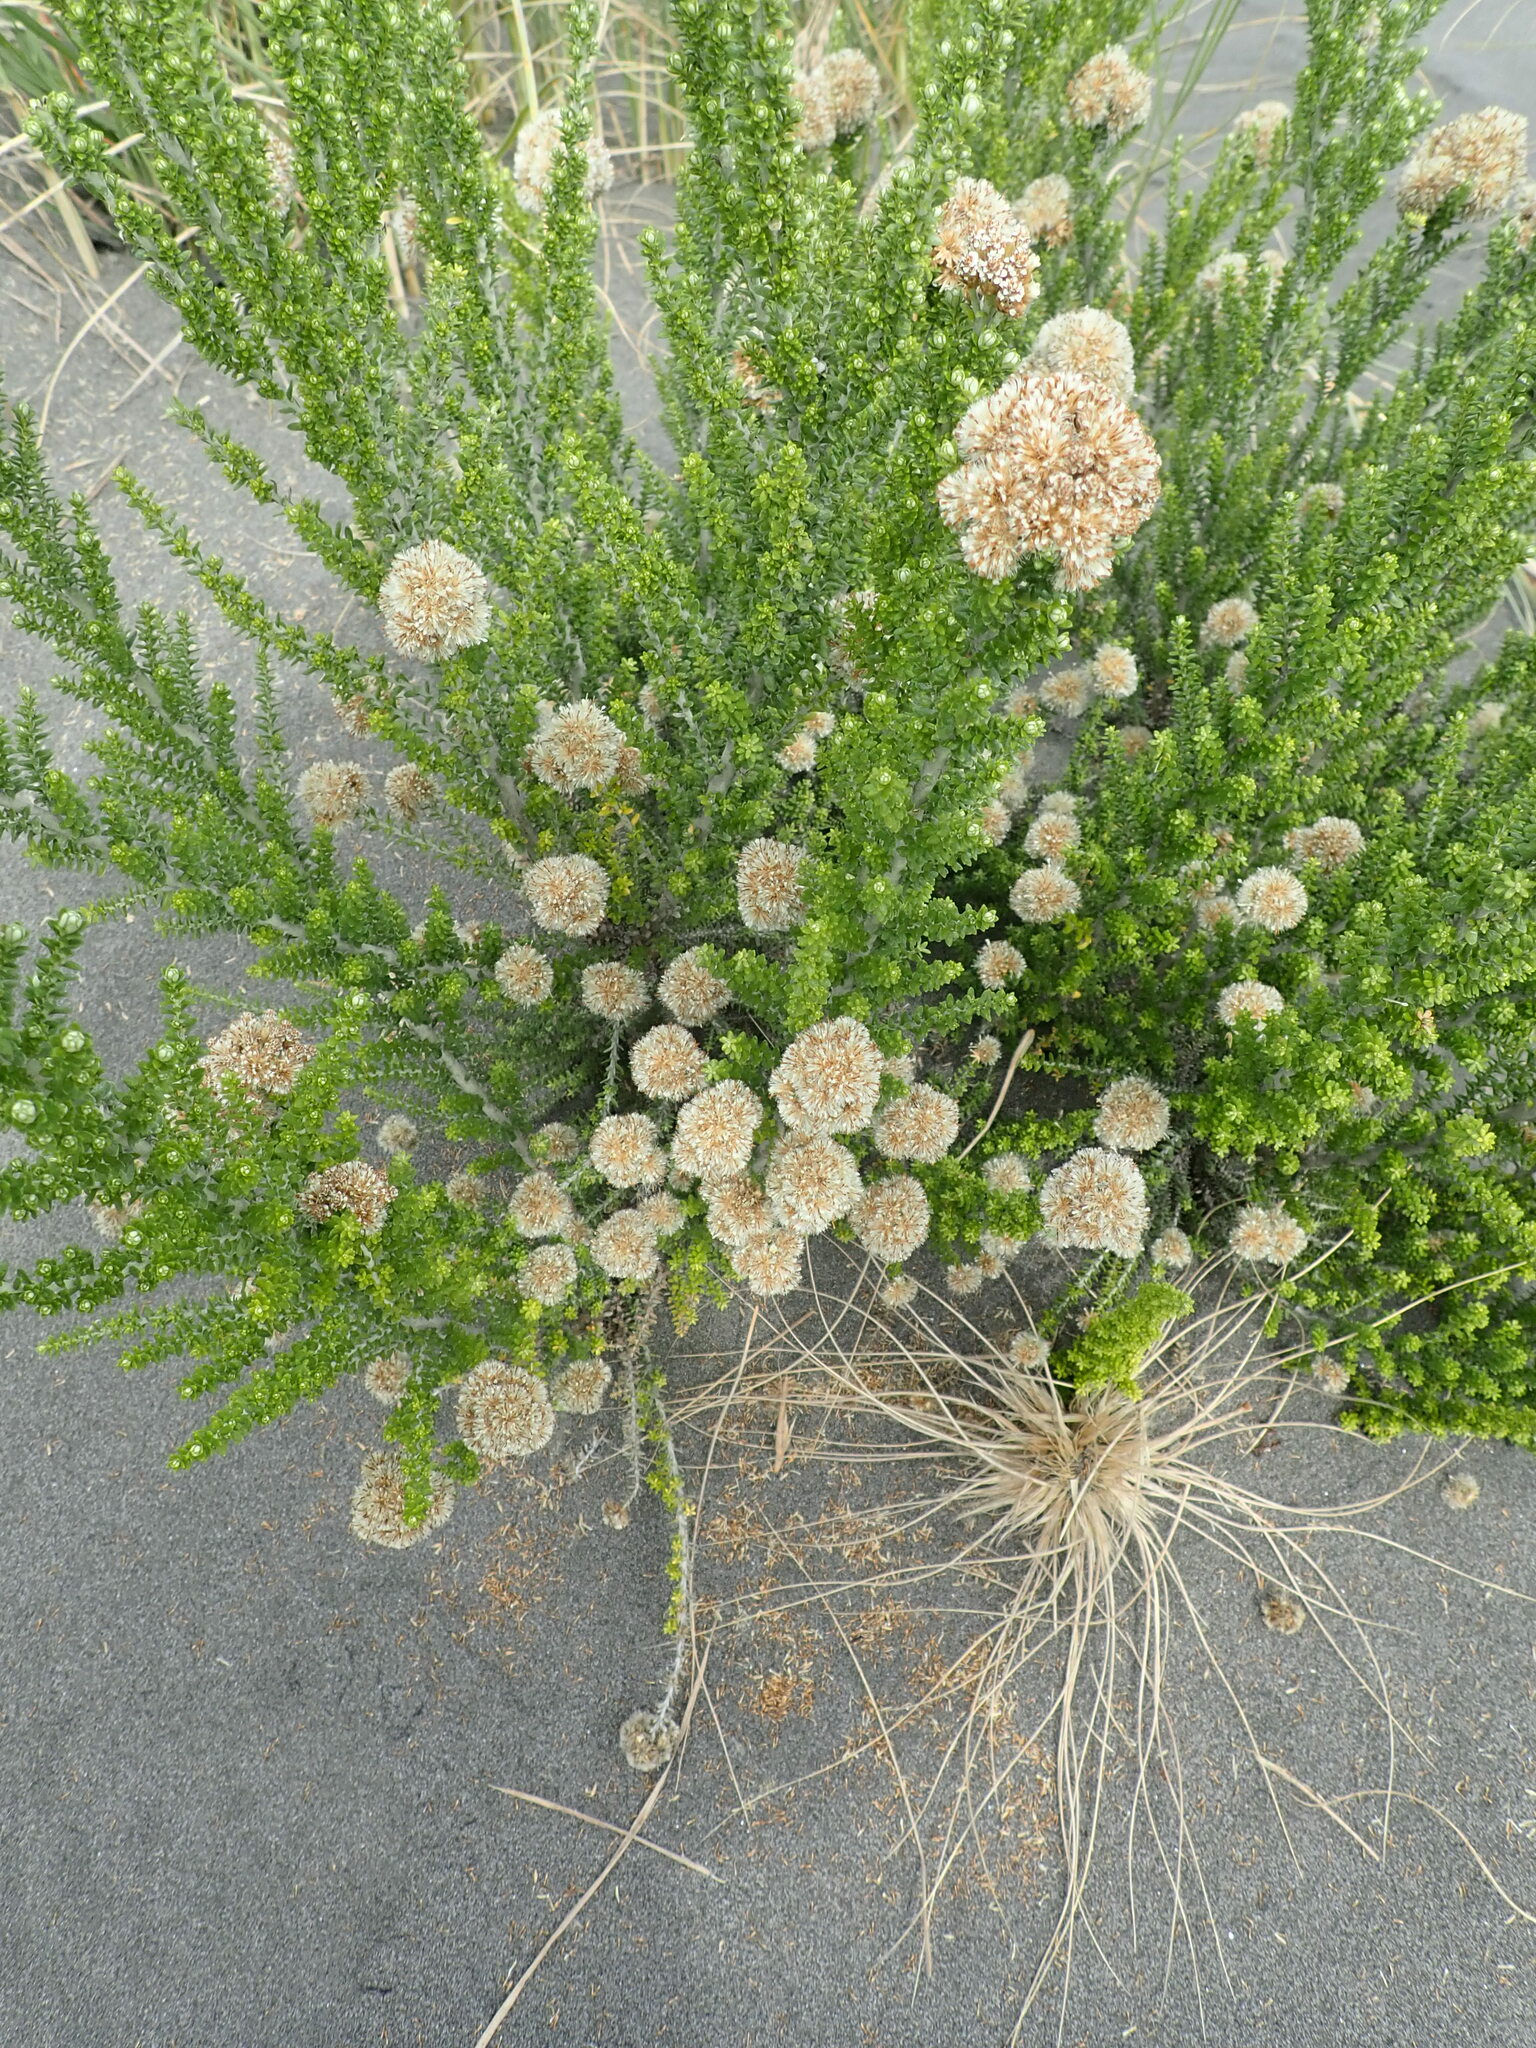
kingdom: Plantae
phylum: Tracheophyta
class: Magnoliopsida
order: Asterales
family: Asteraceae
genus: Ozothamnus
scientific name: Ozothamnus leptophyllus
